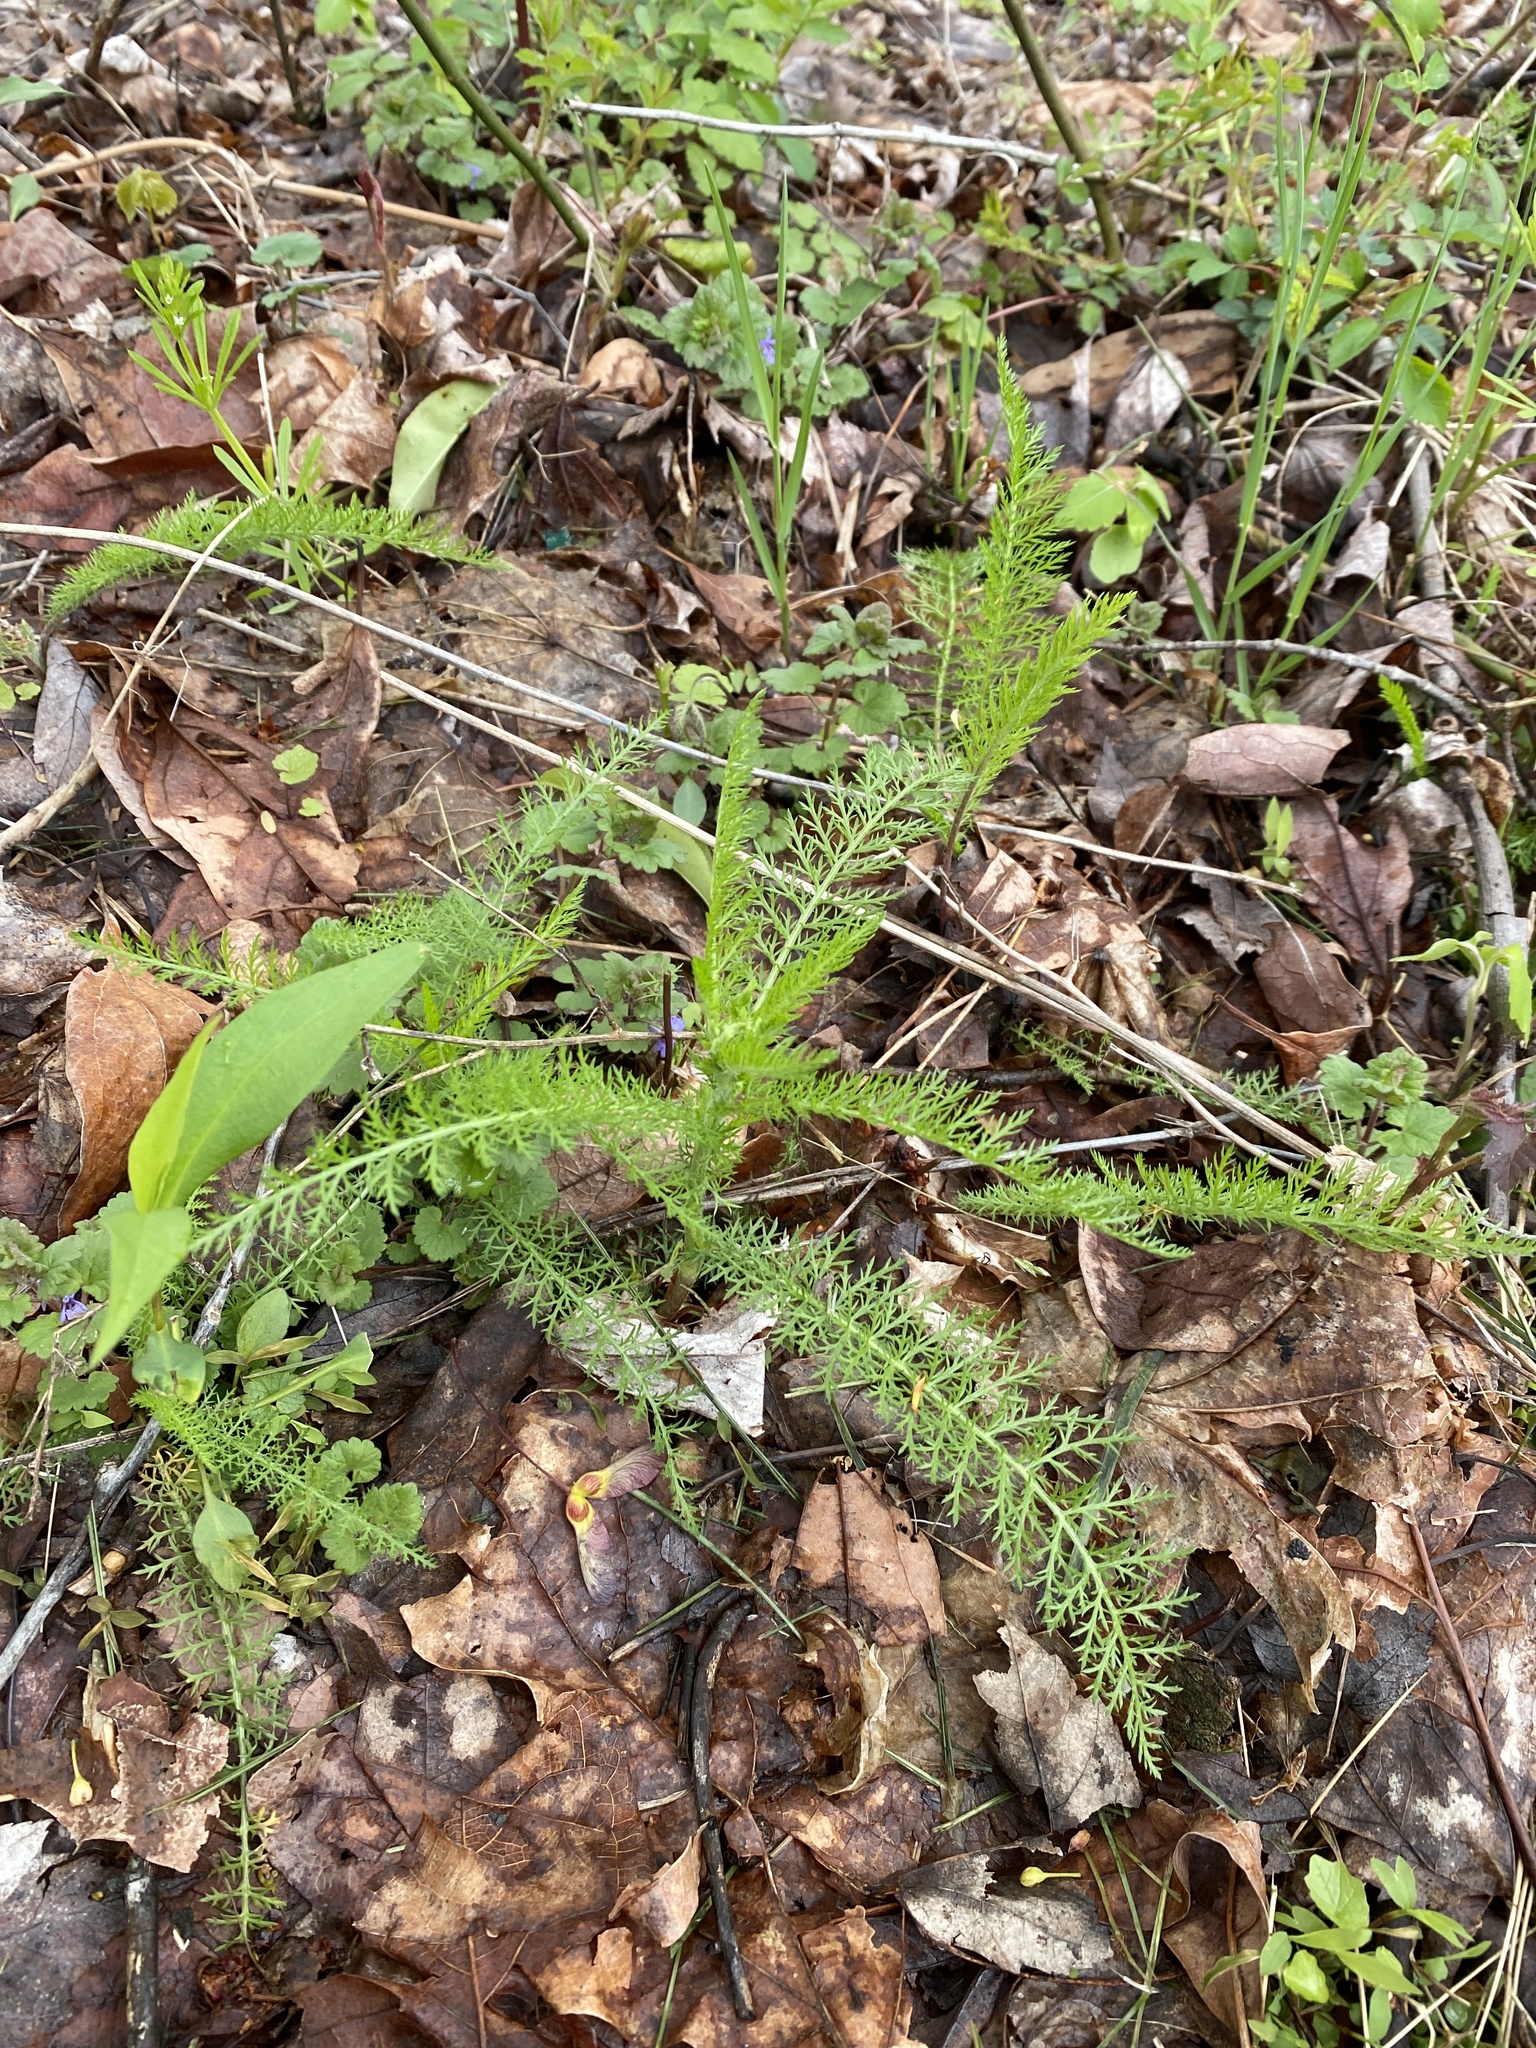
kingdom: Plantae
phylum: Tracheophyta
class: Magnoliopsida
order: Asterales
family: Asteraceae
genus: Achillea
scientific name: Achillea millefolium
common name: Yarrow
